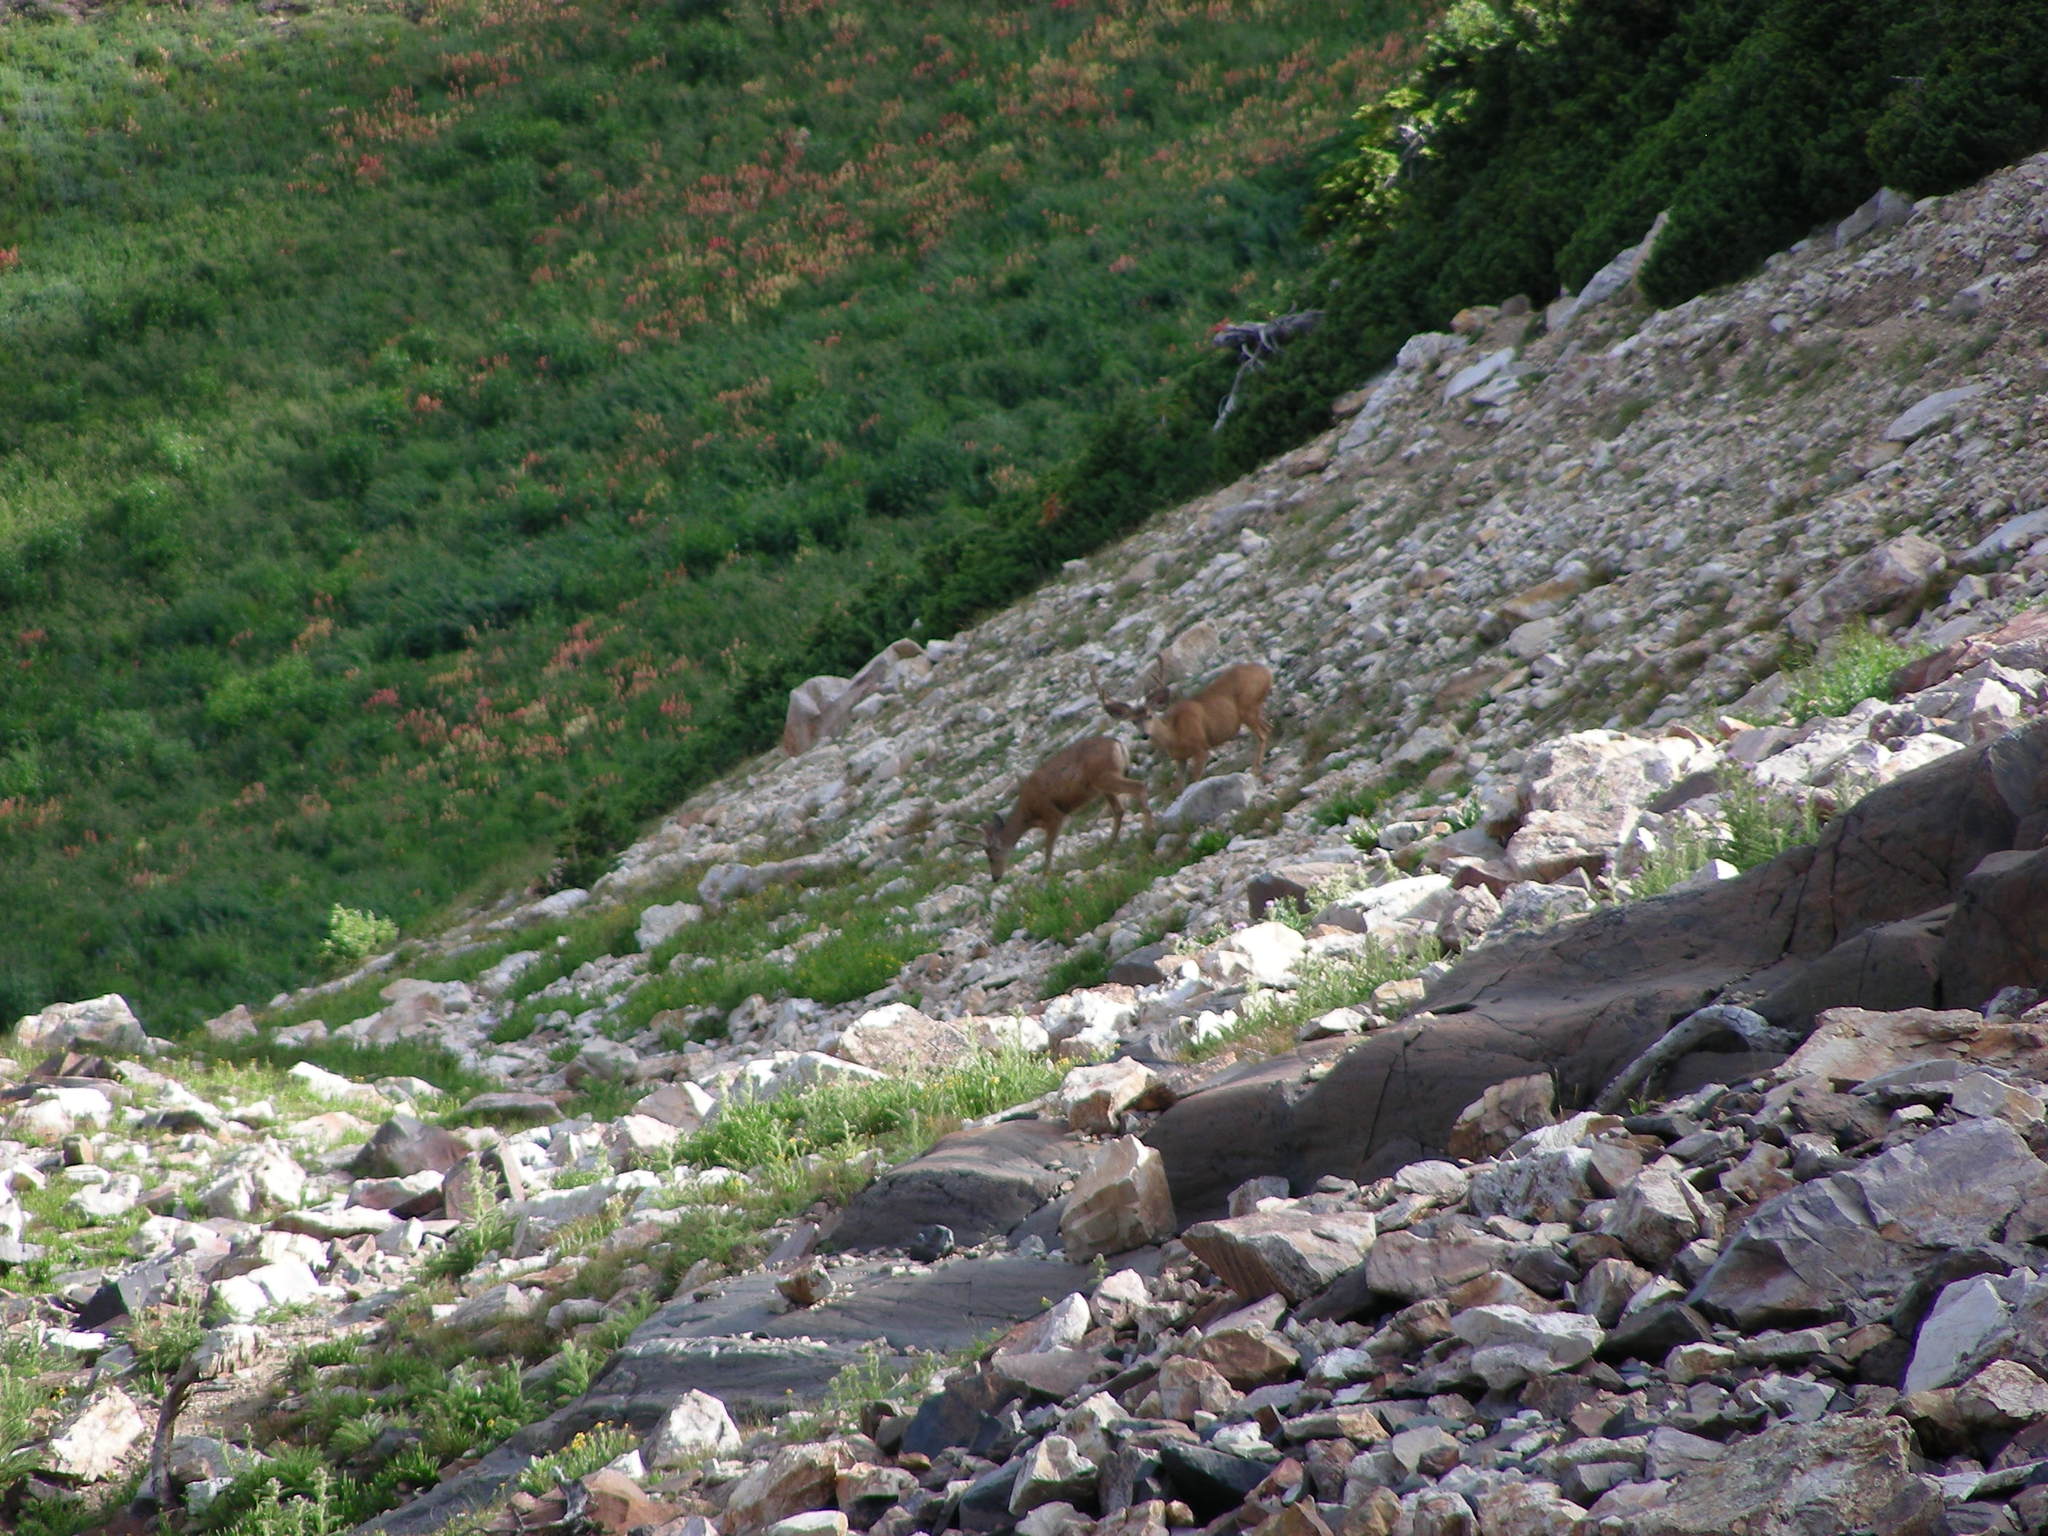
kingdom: Animalia
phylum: Chordata
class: Mammalia
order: Artiodactyla
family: Cervidae
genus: Odocoileus
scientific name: Odocoileus hemionus
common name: Mule deer
